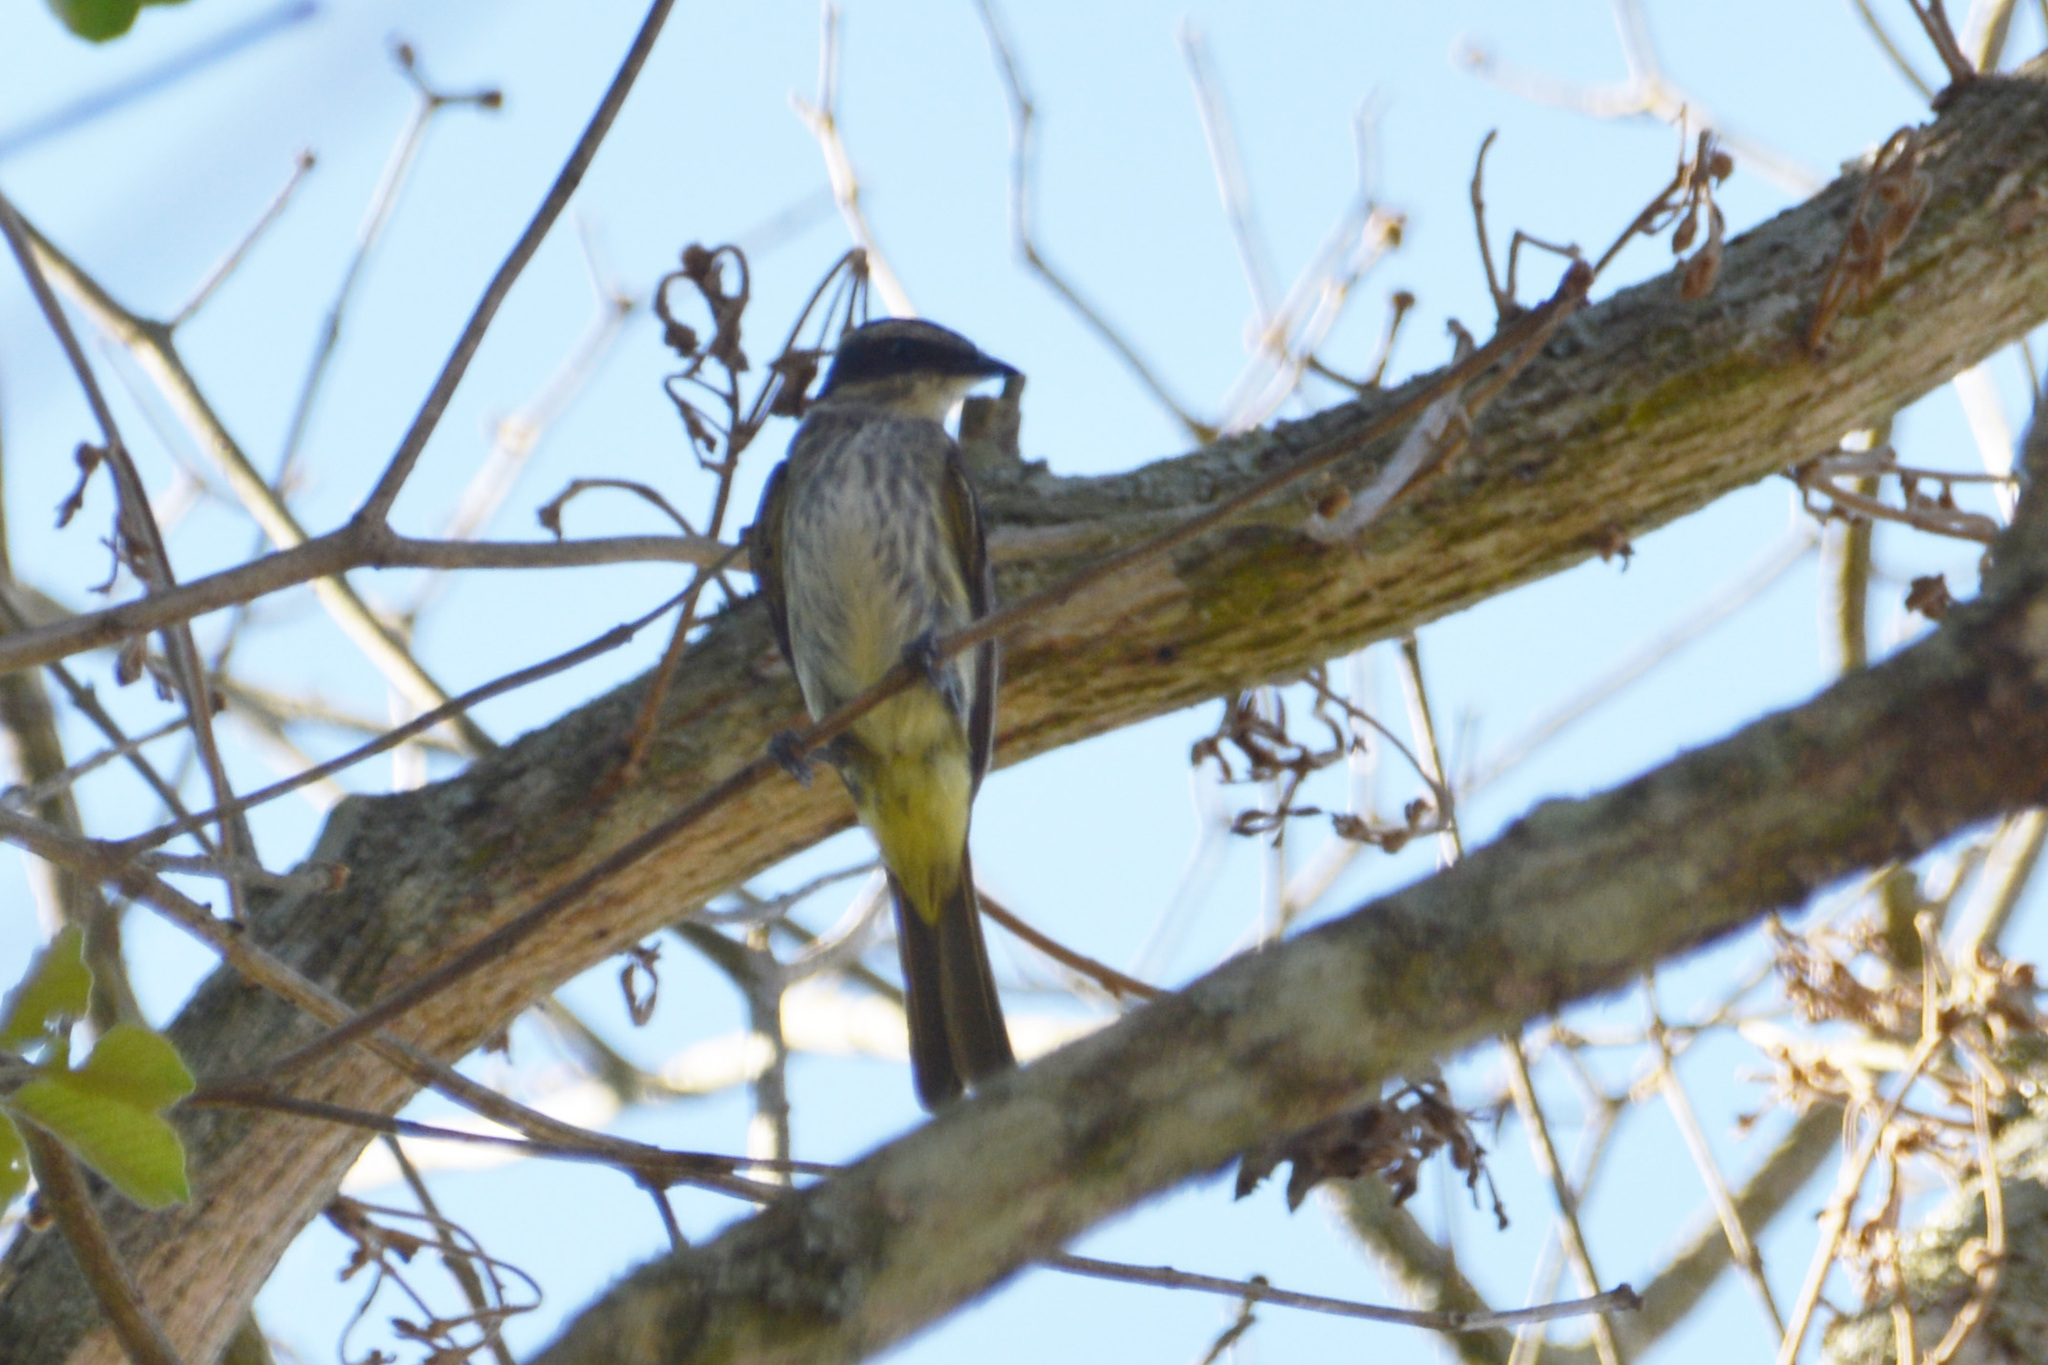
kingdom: Animalia
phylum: Chordata
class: Aves
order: Passeriformes
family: Tyrannidae
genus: Legatus
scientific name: Legatus leucophaius
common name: Piratic flycatcher
